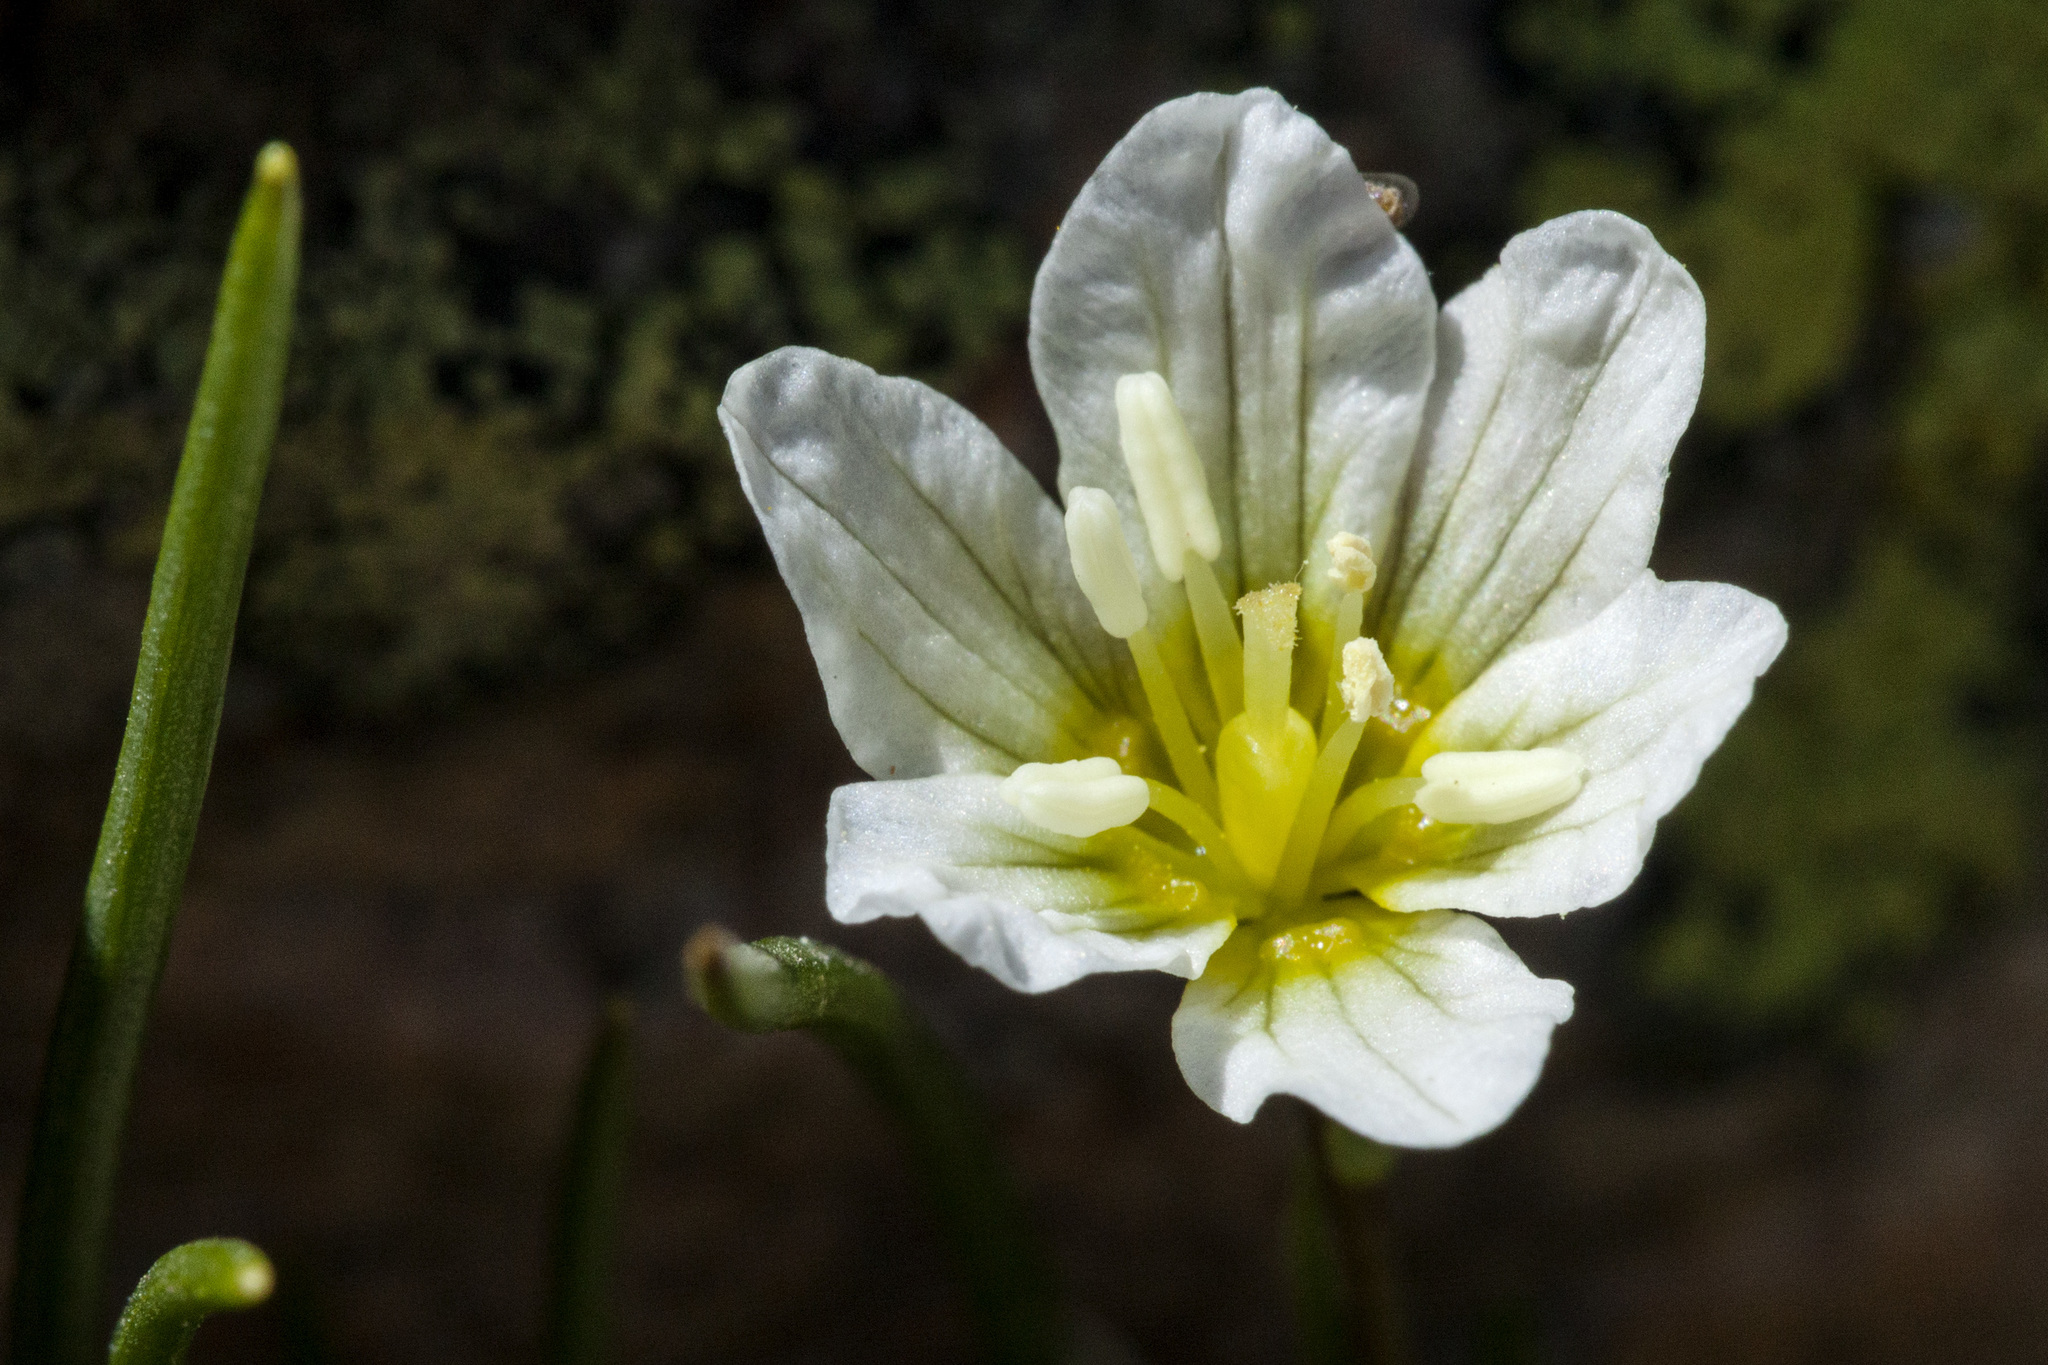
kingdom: Plantae
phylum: Tracheophyta
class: Liliopsida
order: Liliales
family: Liliaceae
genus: Gagea
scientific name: Gagea serotina
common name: Snowdon lily
